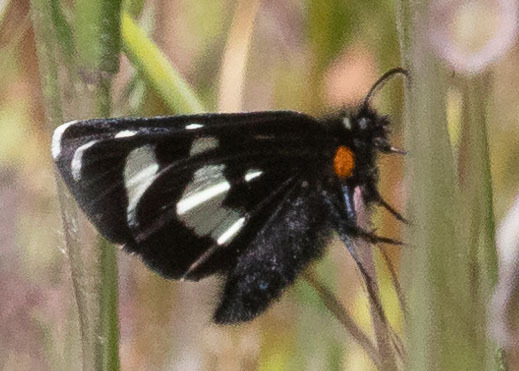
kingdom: Animalia
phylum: Arthropoda
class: Insecta
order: Lepidoptera
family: Noctuidae
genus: Alypia
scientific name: Alypia mariposa
